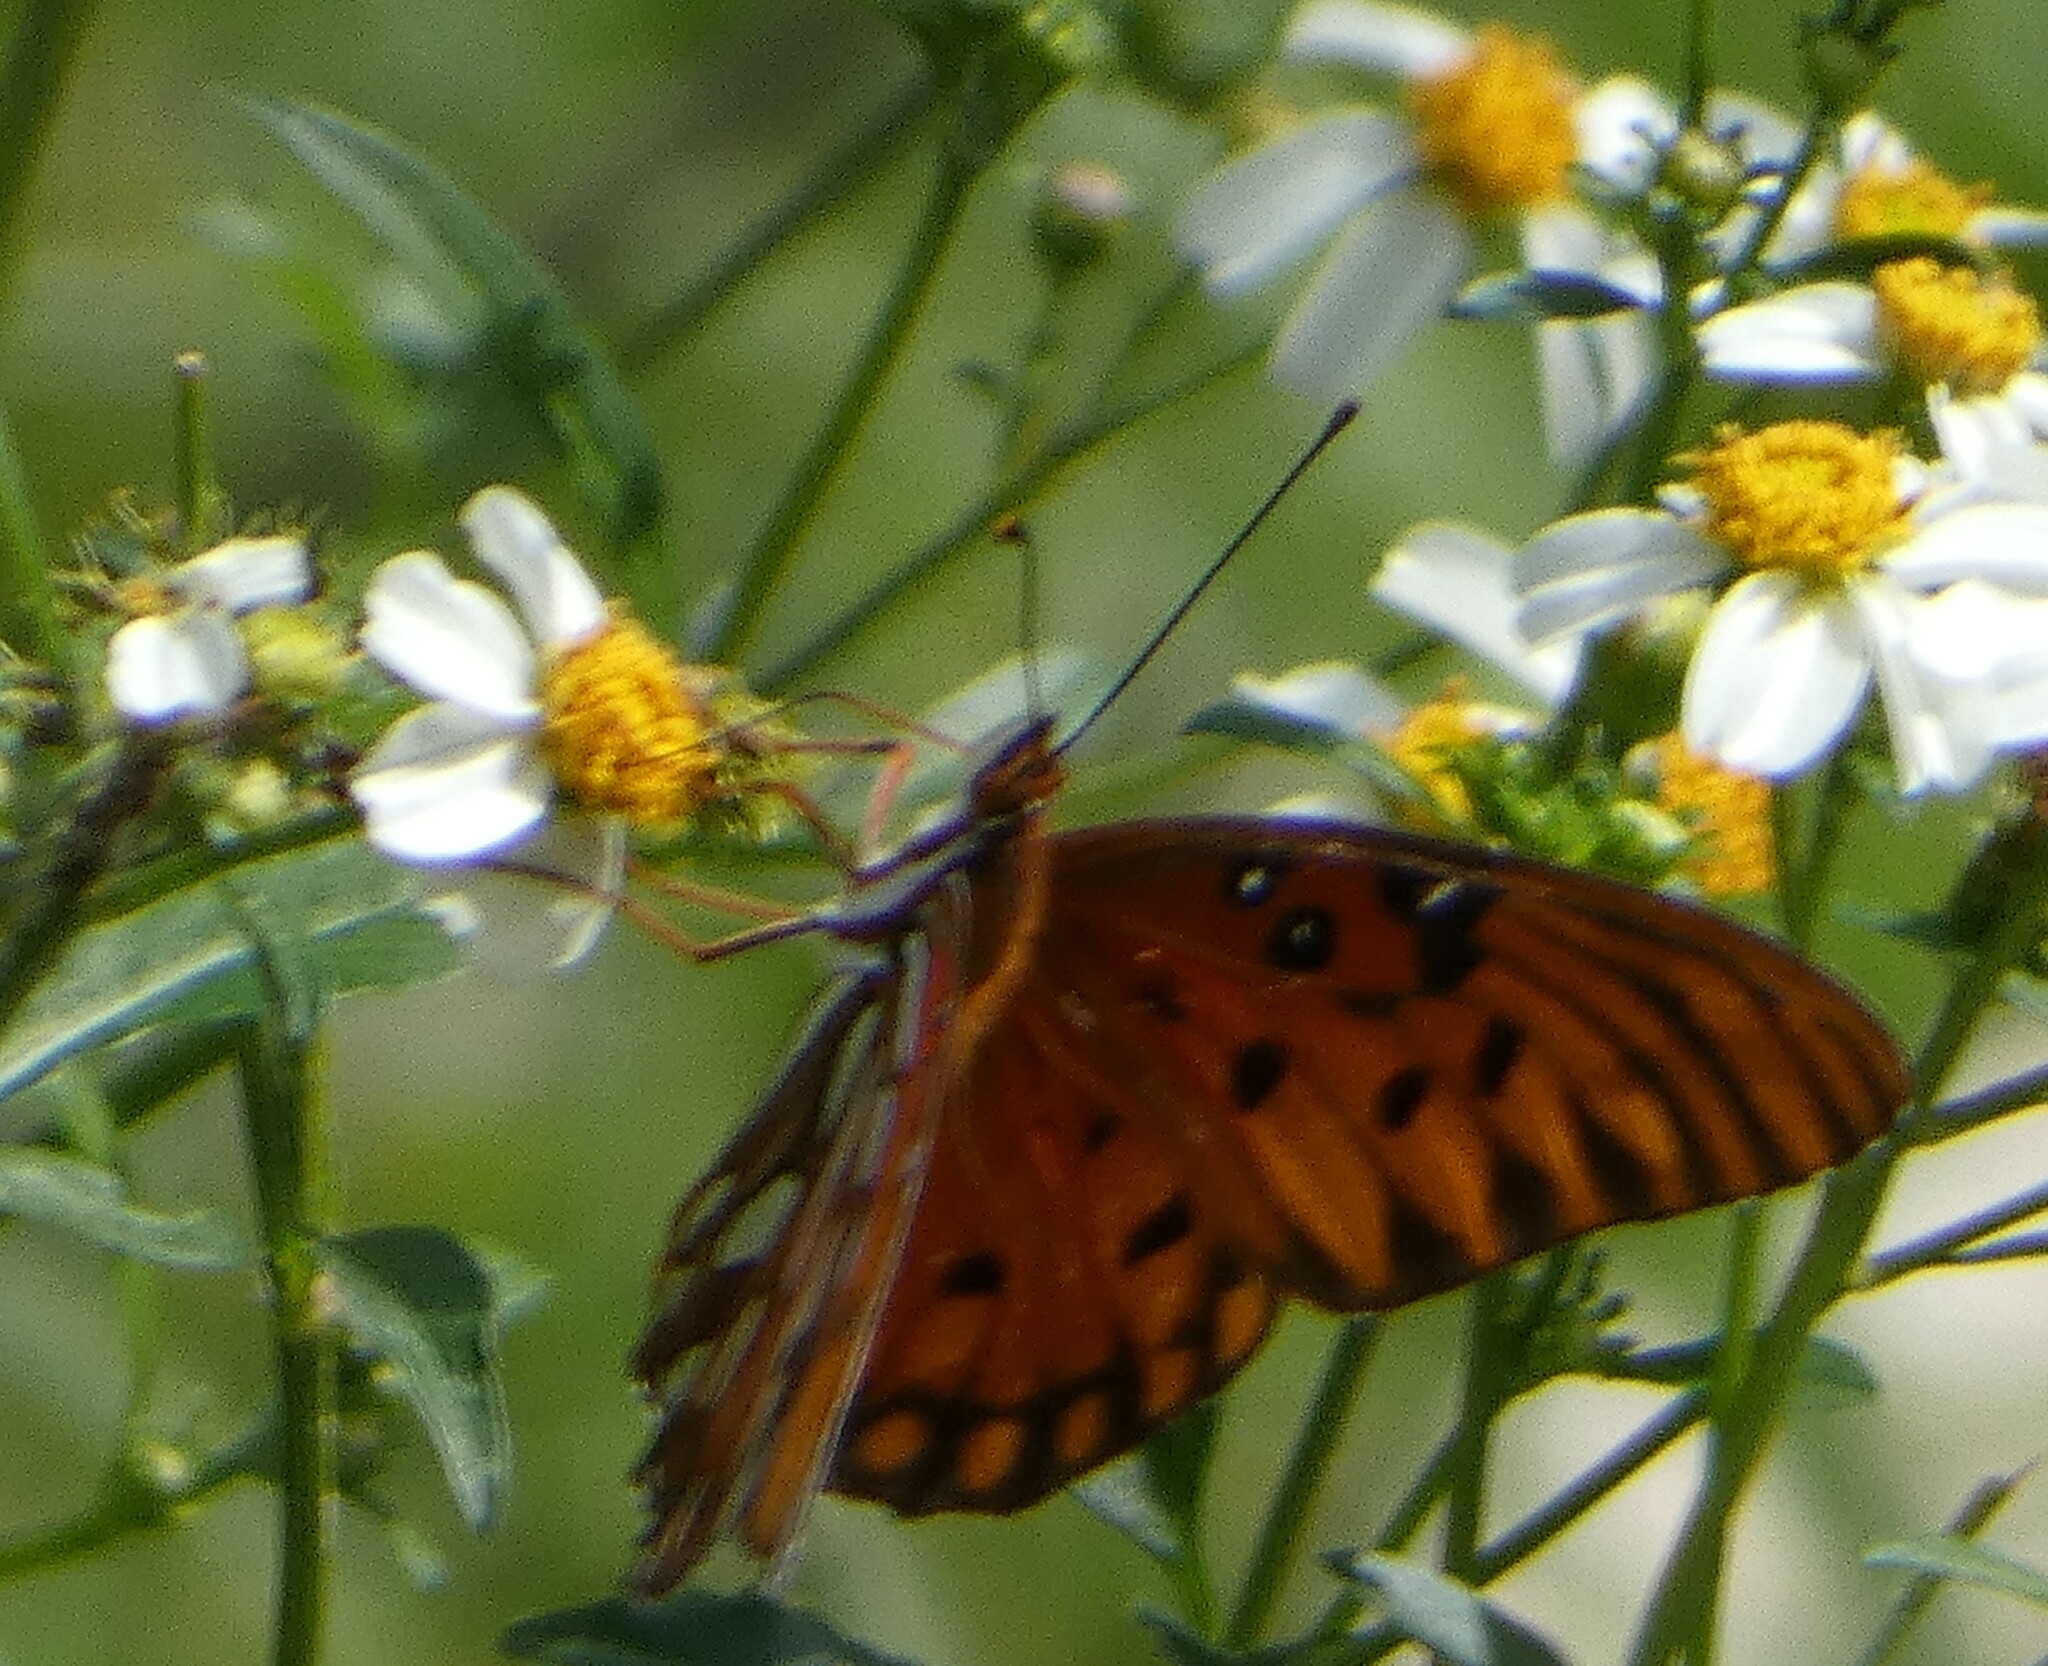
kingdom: Animalia
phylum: Arthropoda
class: Insecta
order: Lepidoptera
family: Nymphalidae
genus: Dione
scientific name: Dione vanillae
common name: Gulf fritillary
